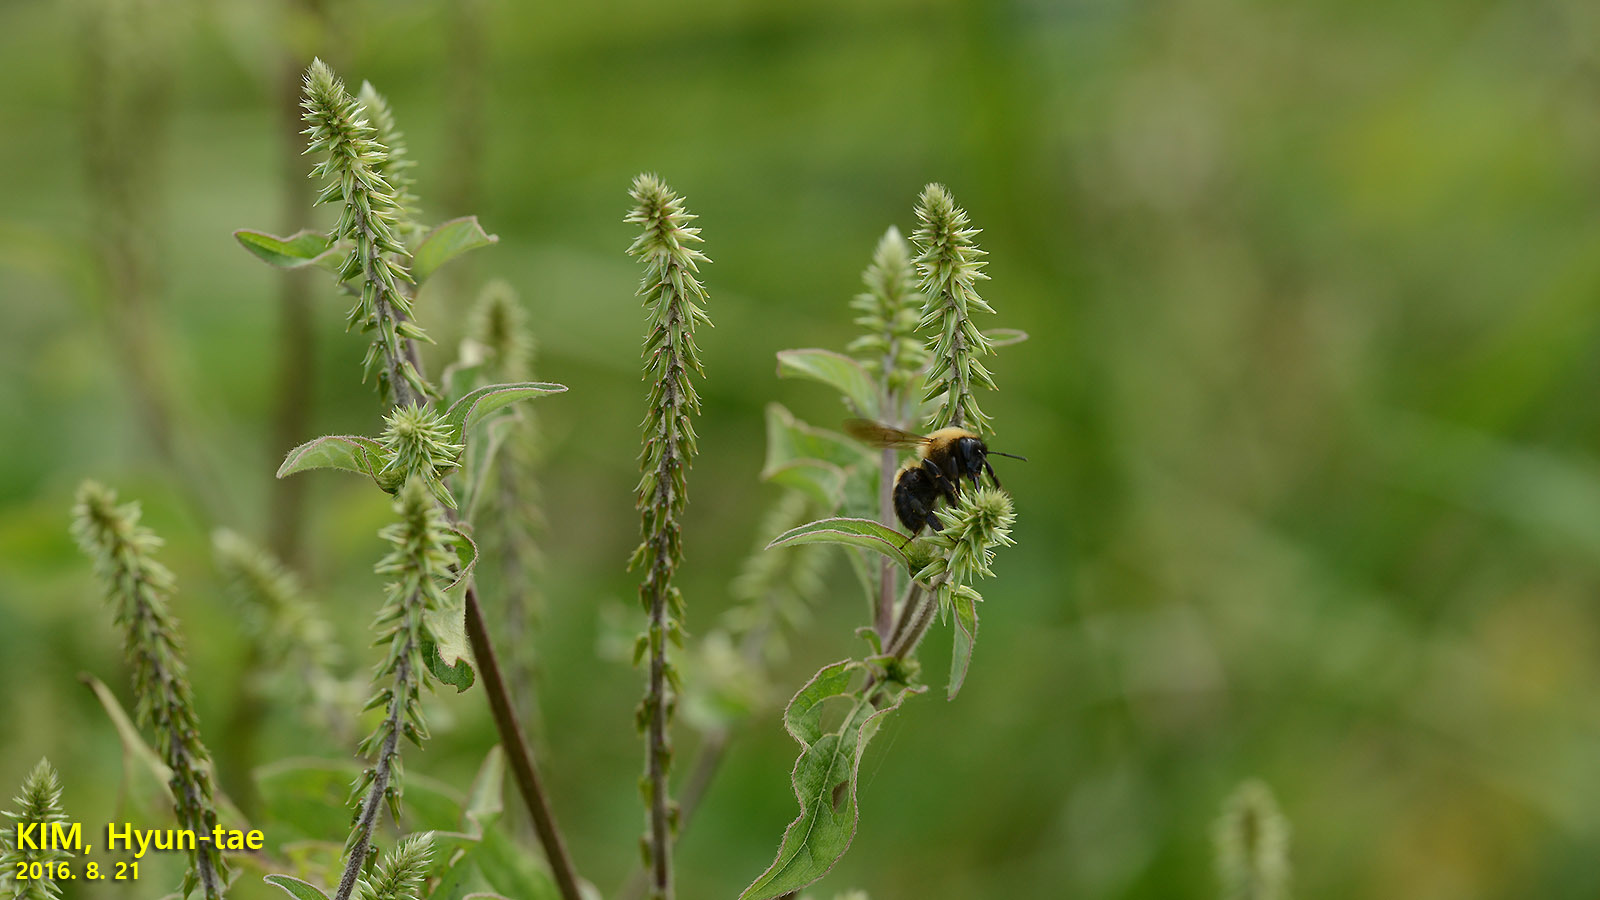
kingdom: Animalia
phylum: Arthropoda
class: Insecta
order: Hymenoptera
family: Apidae
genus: Bombus
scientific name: Bombus opulentus
